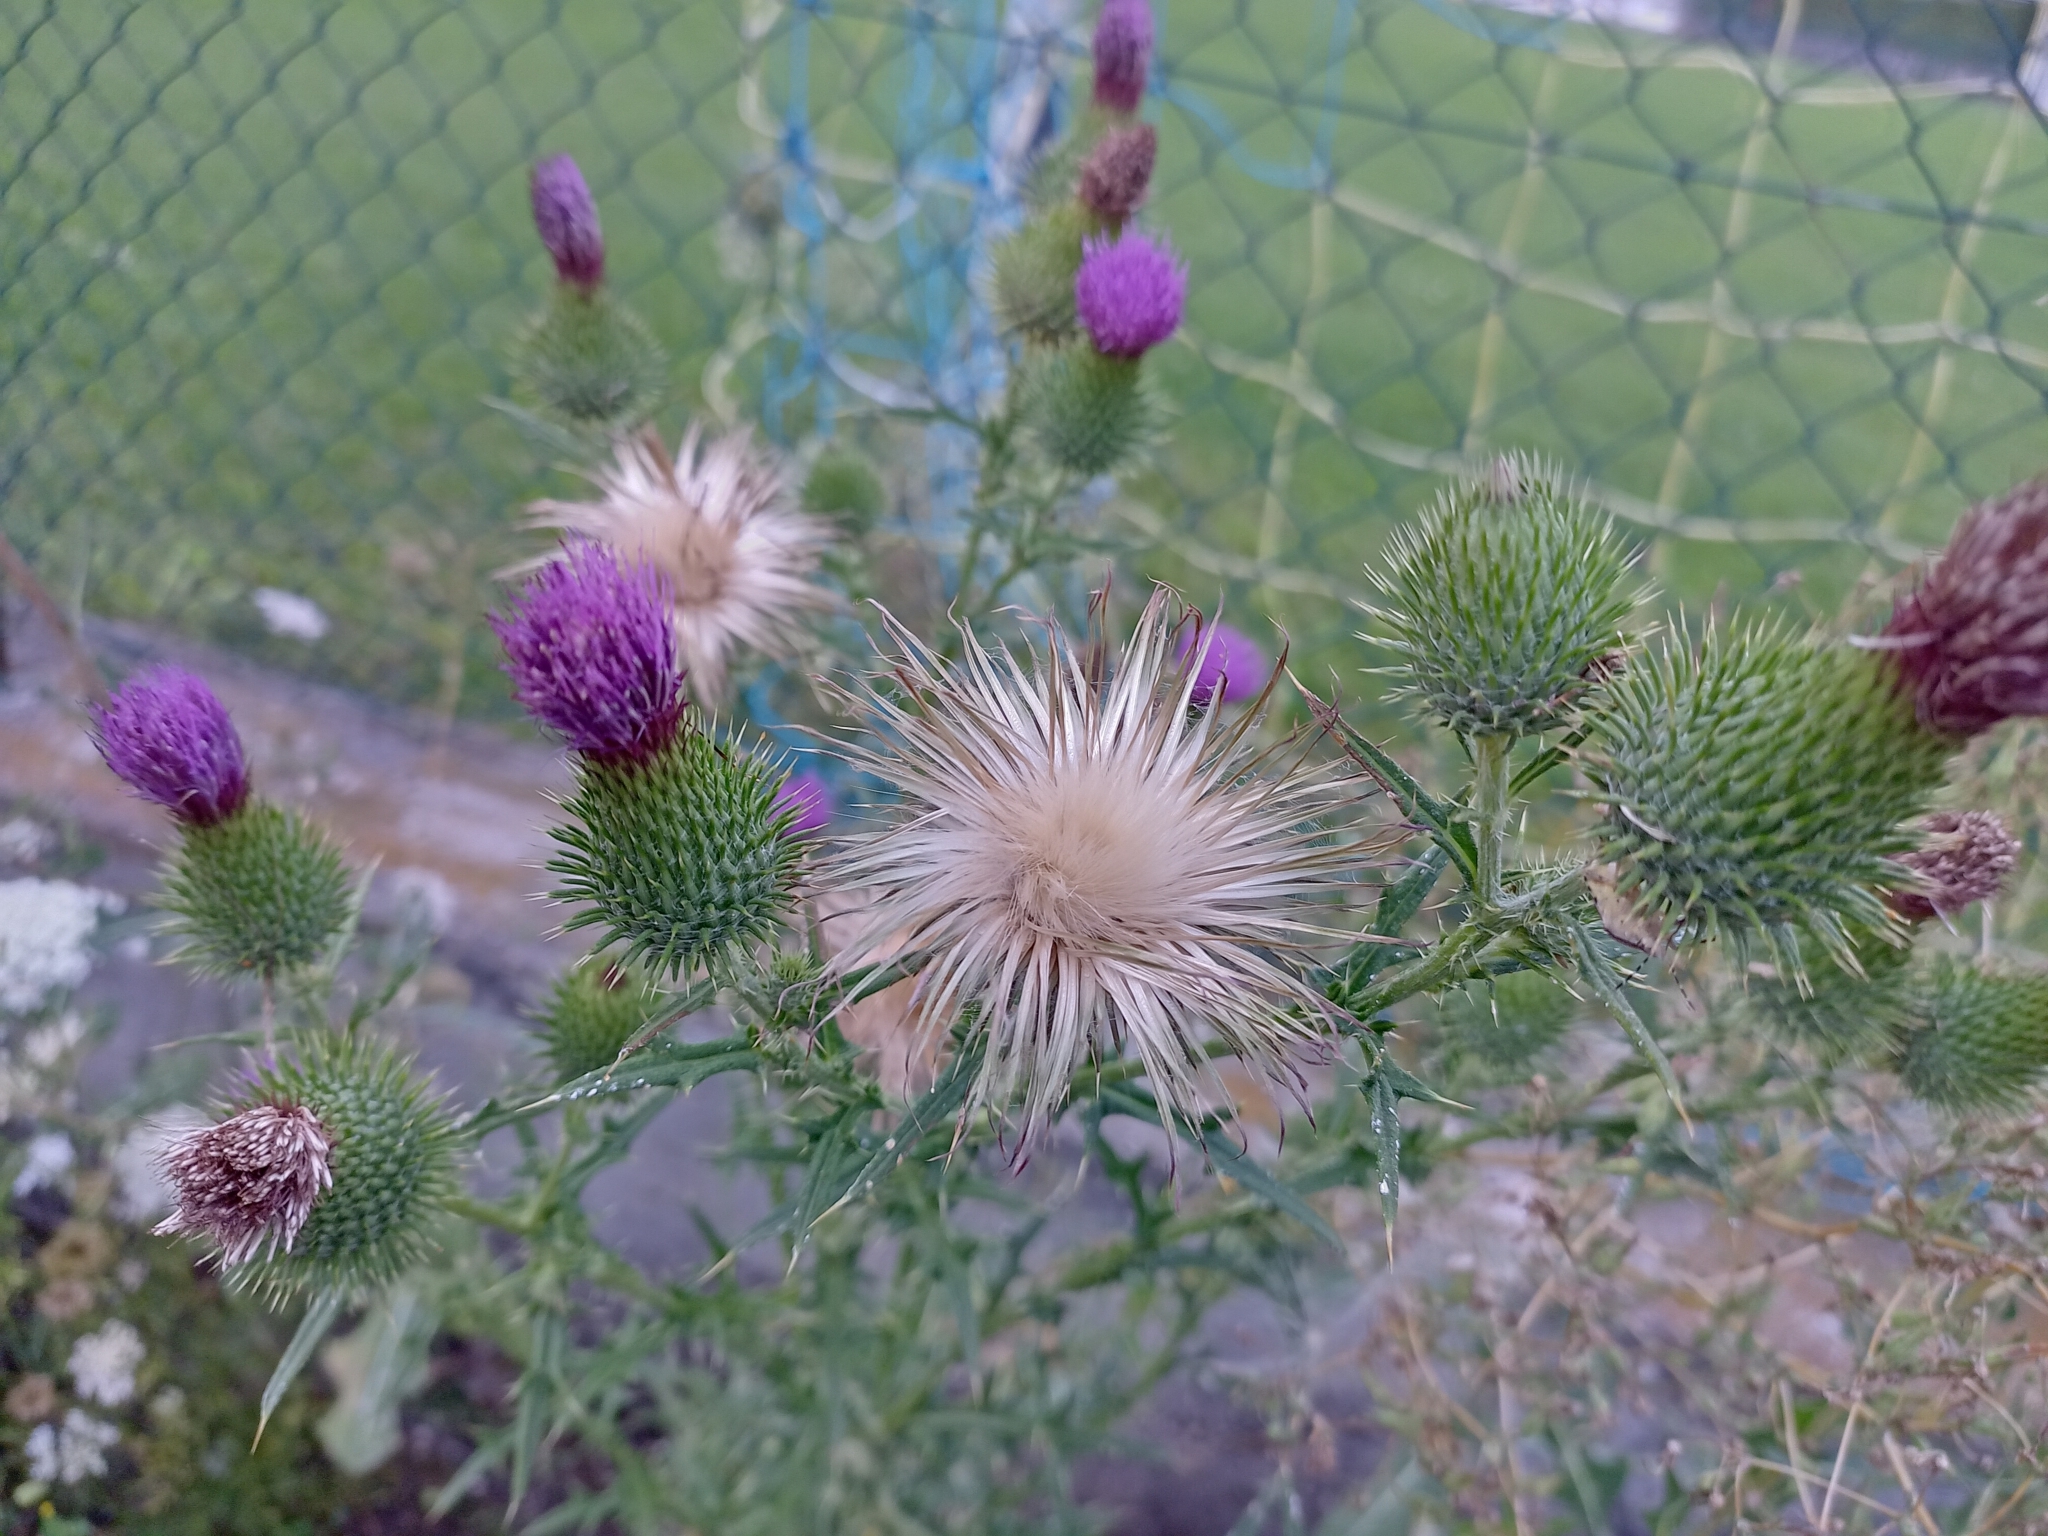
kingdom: Plantae
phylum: Tracheophyta
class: Magnoliopsida
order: Asterales
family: Asteraceae
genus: Cirsium
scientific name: Cirsium vulgare
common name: Bull thistle
